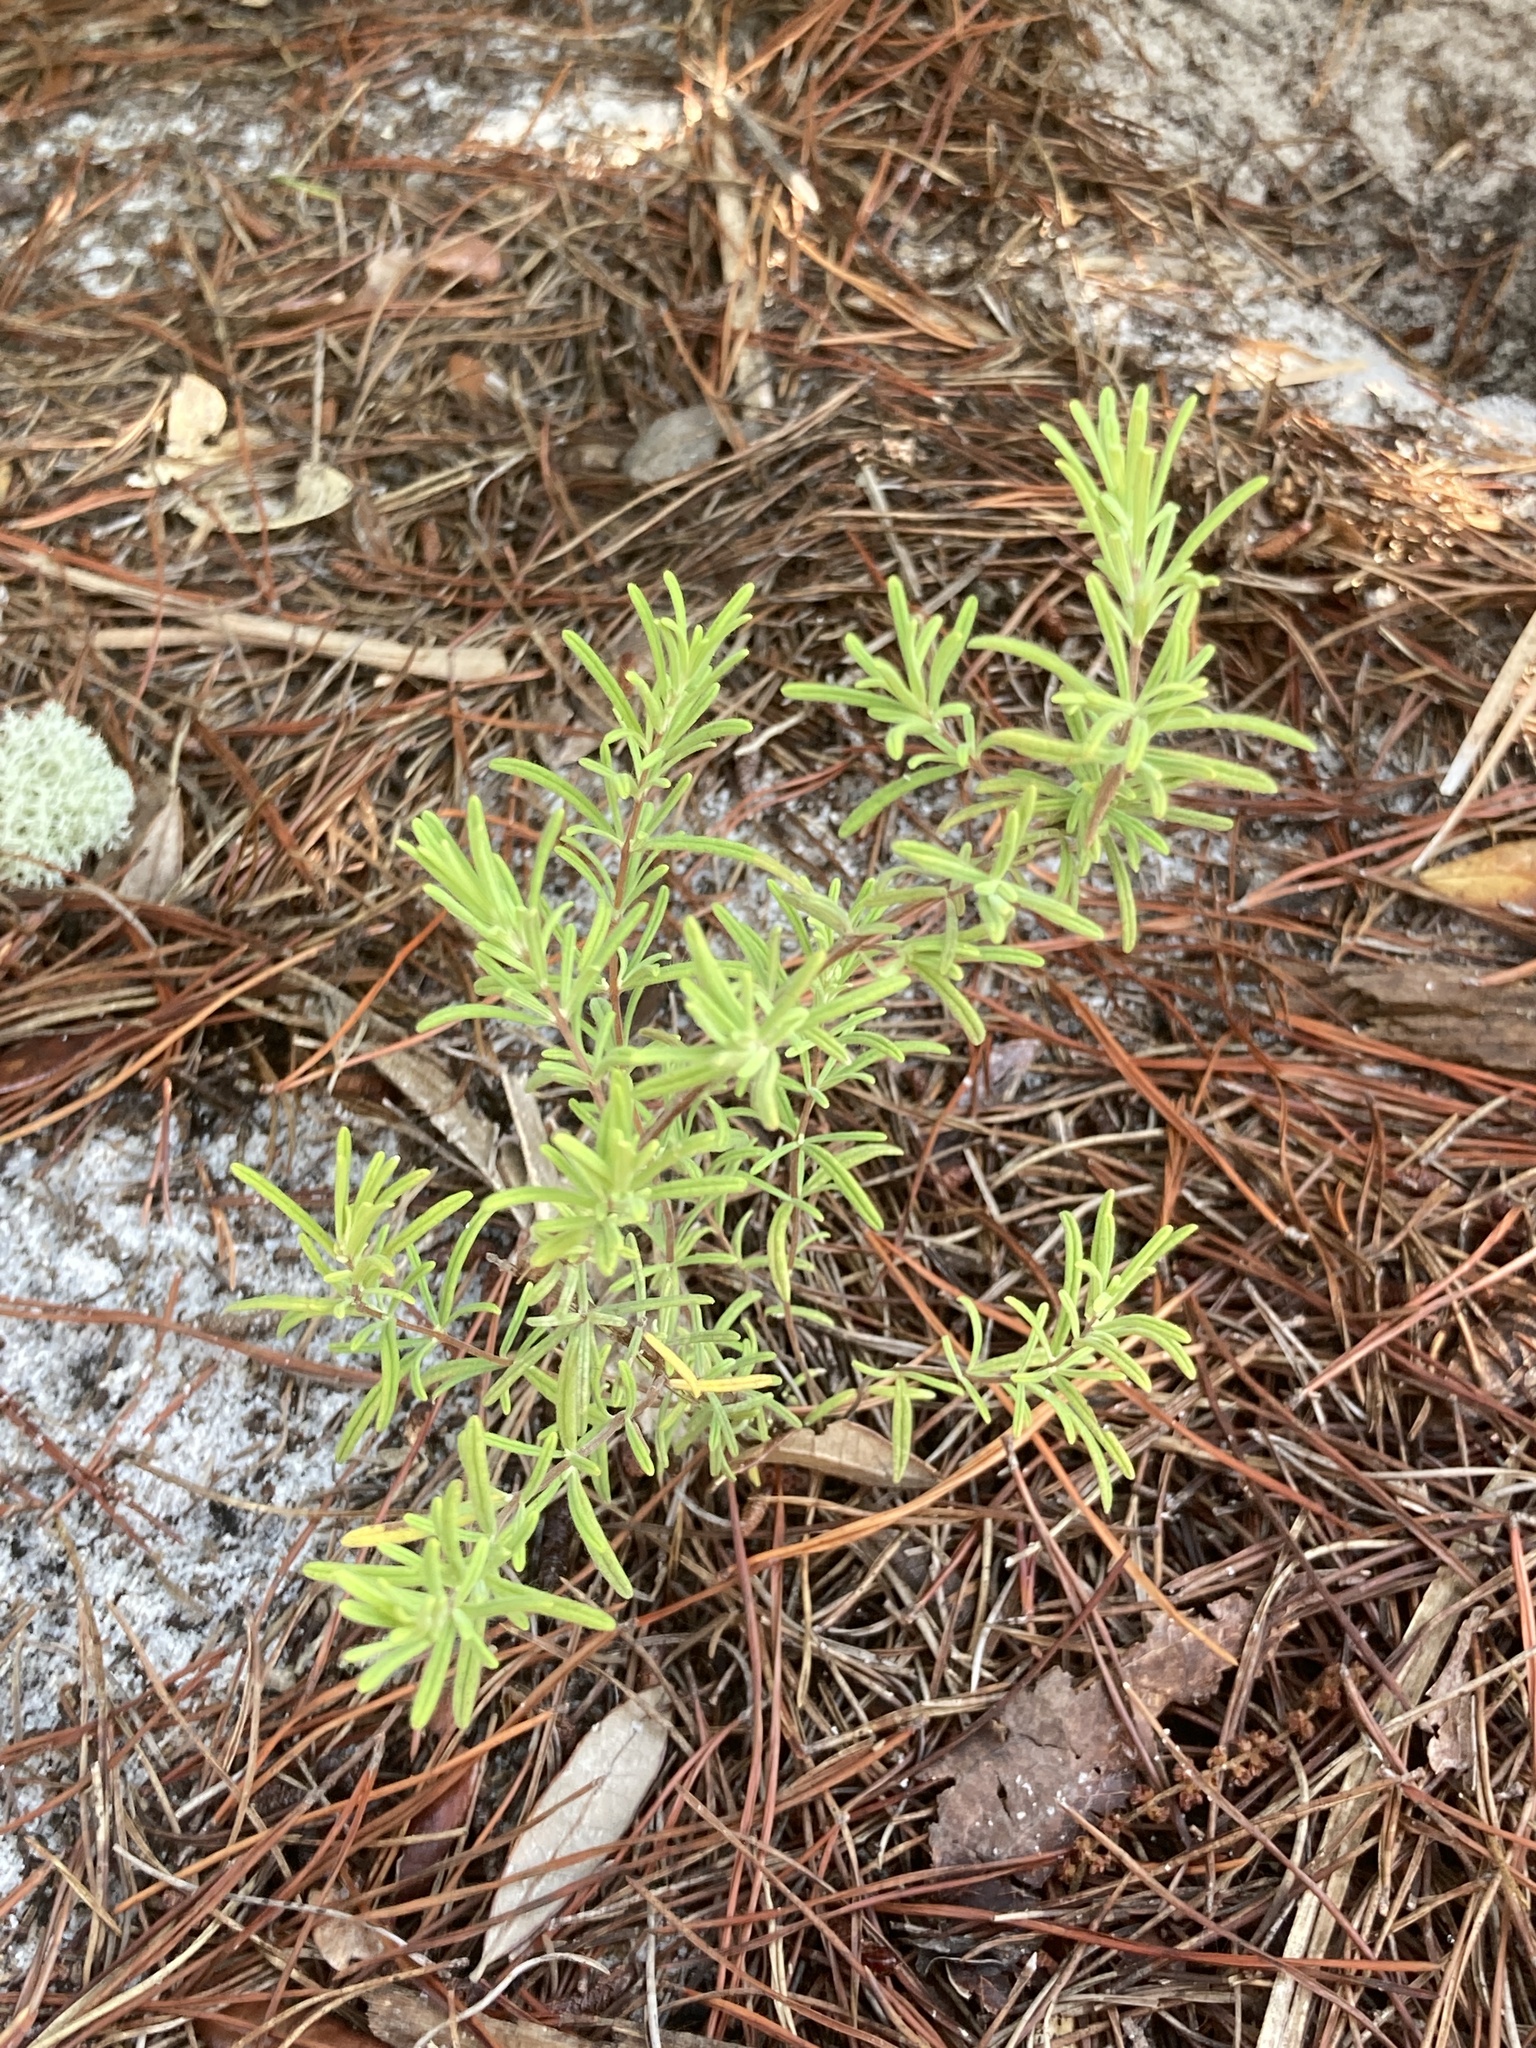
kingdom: Plantae
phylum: Tracheophyta
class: Magnoliopsida
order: Lamiales
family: Lamiaceae
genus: Conradina
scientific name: Conradina canescens
